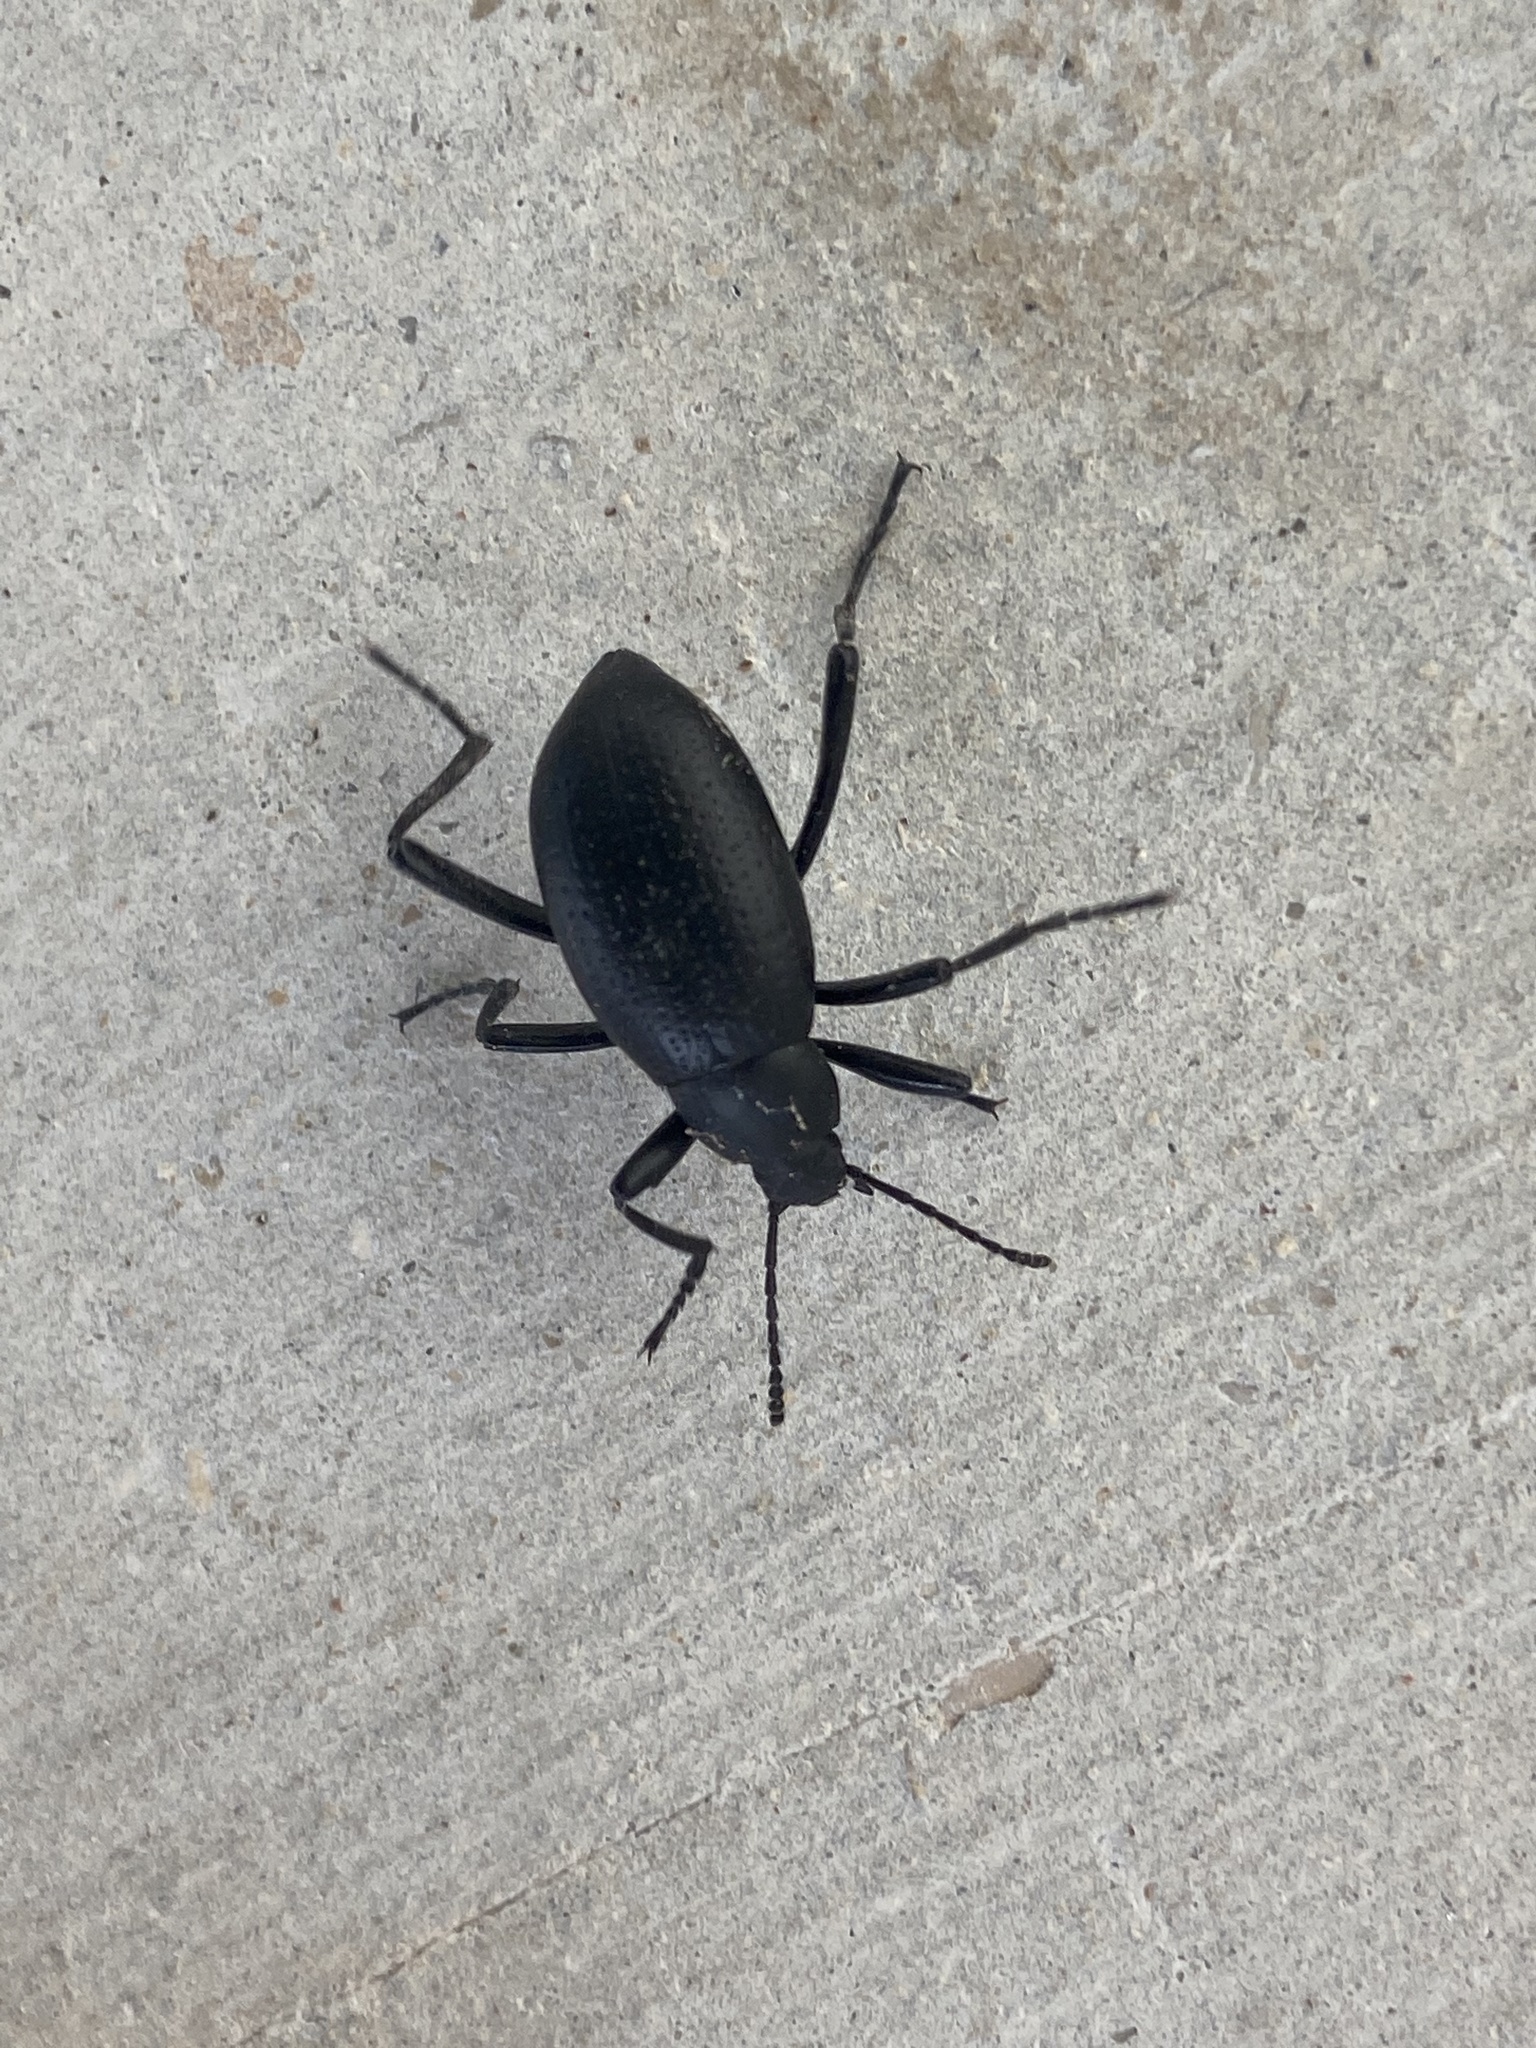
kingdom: Animalia
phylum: Arthropoda
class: Insecta
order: Coleoptera
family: Tenebrionidae
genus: Eleodes
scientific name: Eleodes goryi
